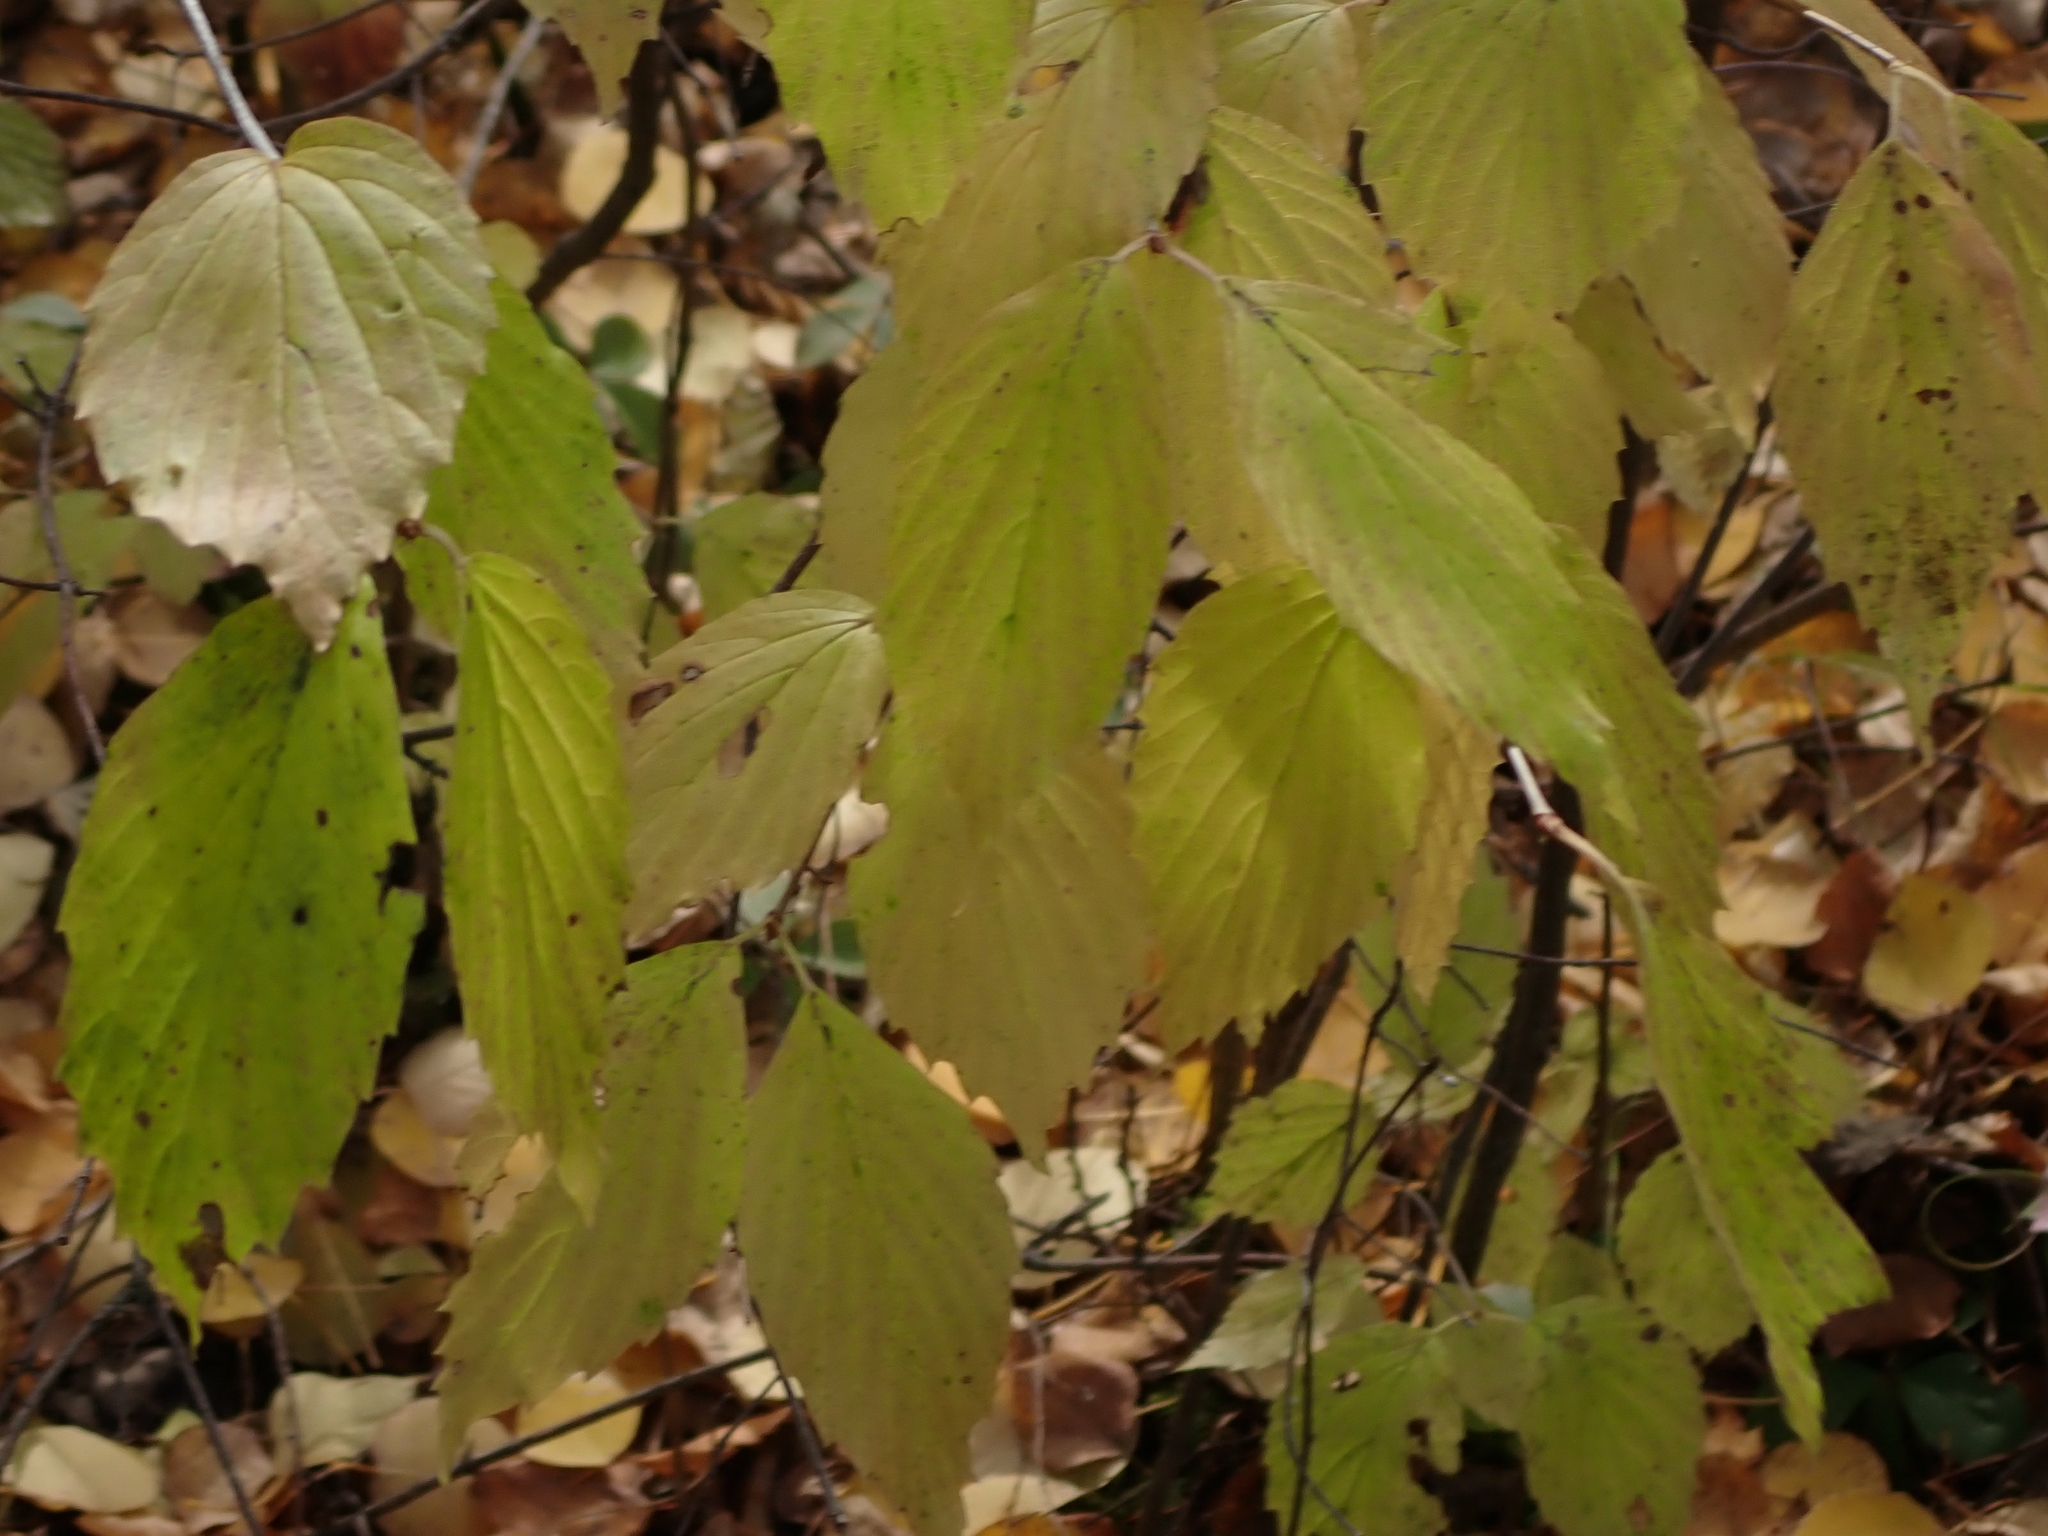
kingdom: Plantae
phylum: Tracheophyta
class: Magnoliopsida
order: Dipsacales
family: Viburnaceae
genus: Viburnum
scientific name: Viburnum rafinesqueanum
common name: Downy arrow-wood
